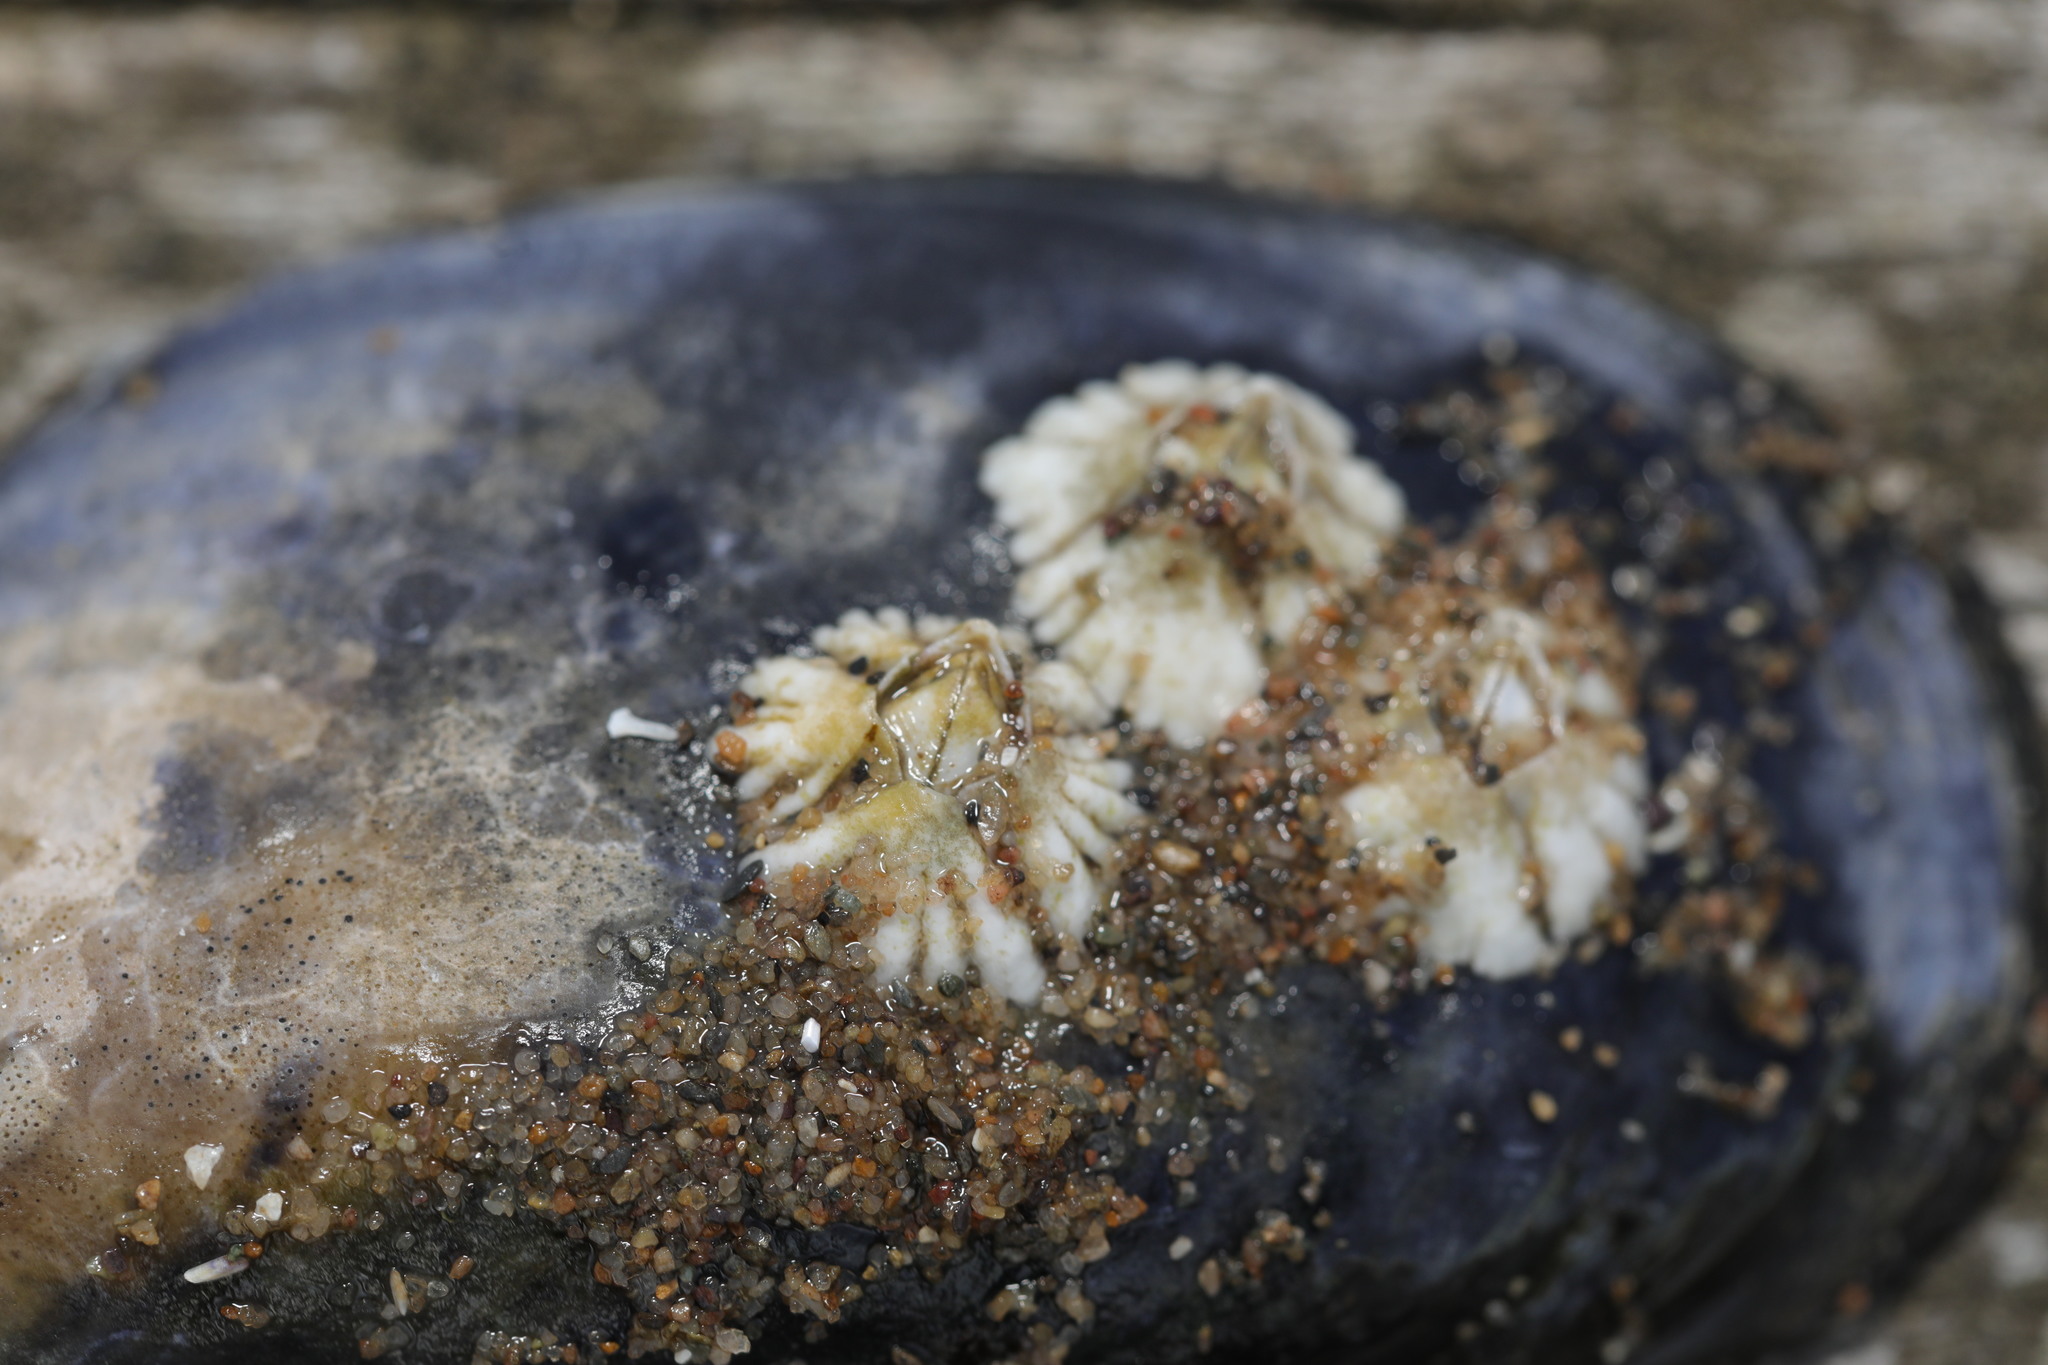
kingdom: Animalia
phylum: Arthropoda
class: Maxillopoda
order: Sessilia
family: Archaeobalanidae
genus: Semibalanus
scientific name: Semibalanus balanoides
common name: Acorn barnacle
